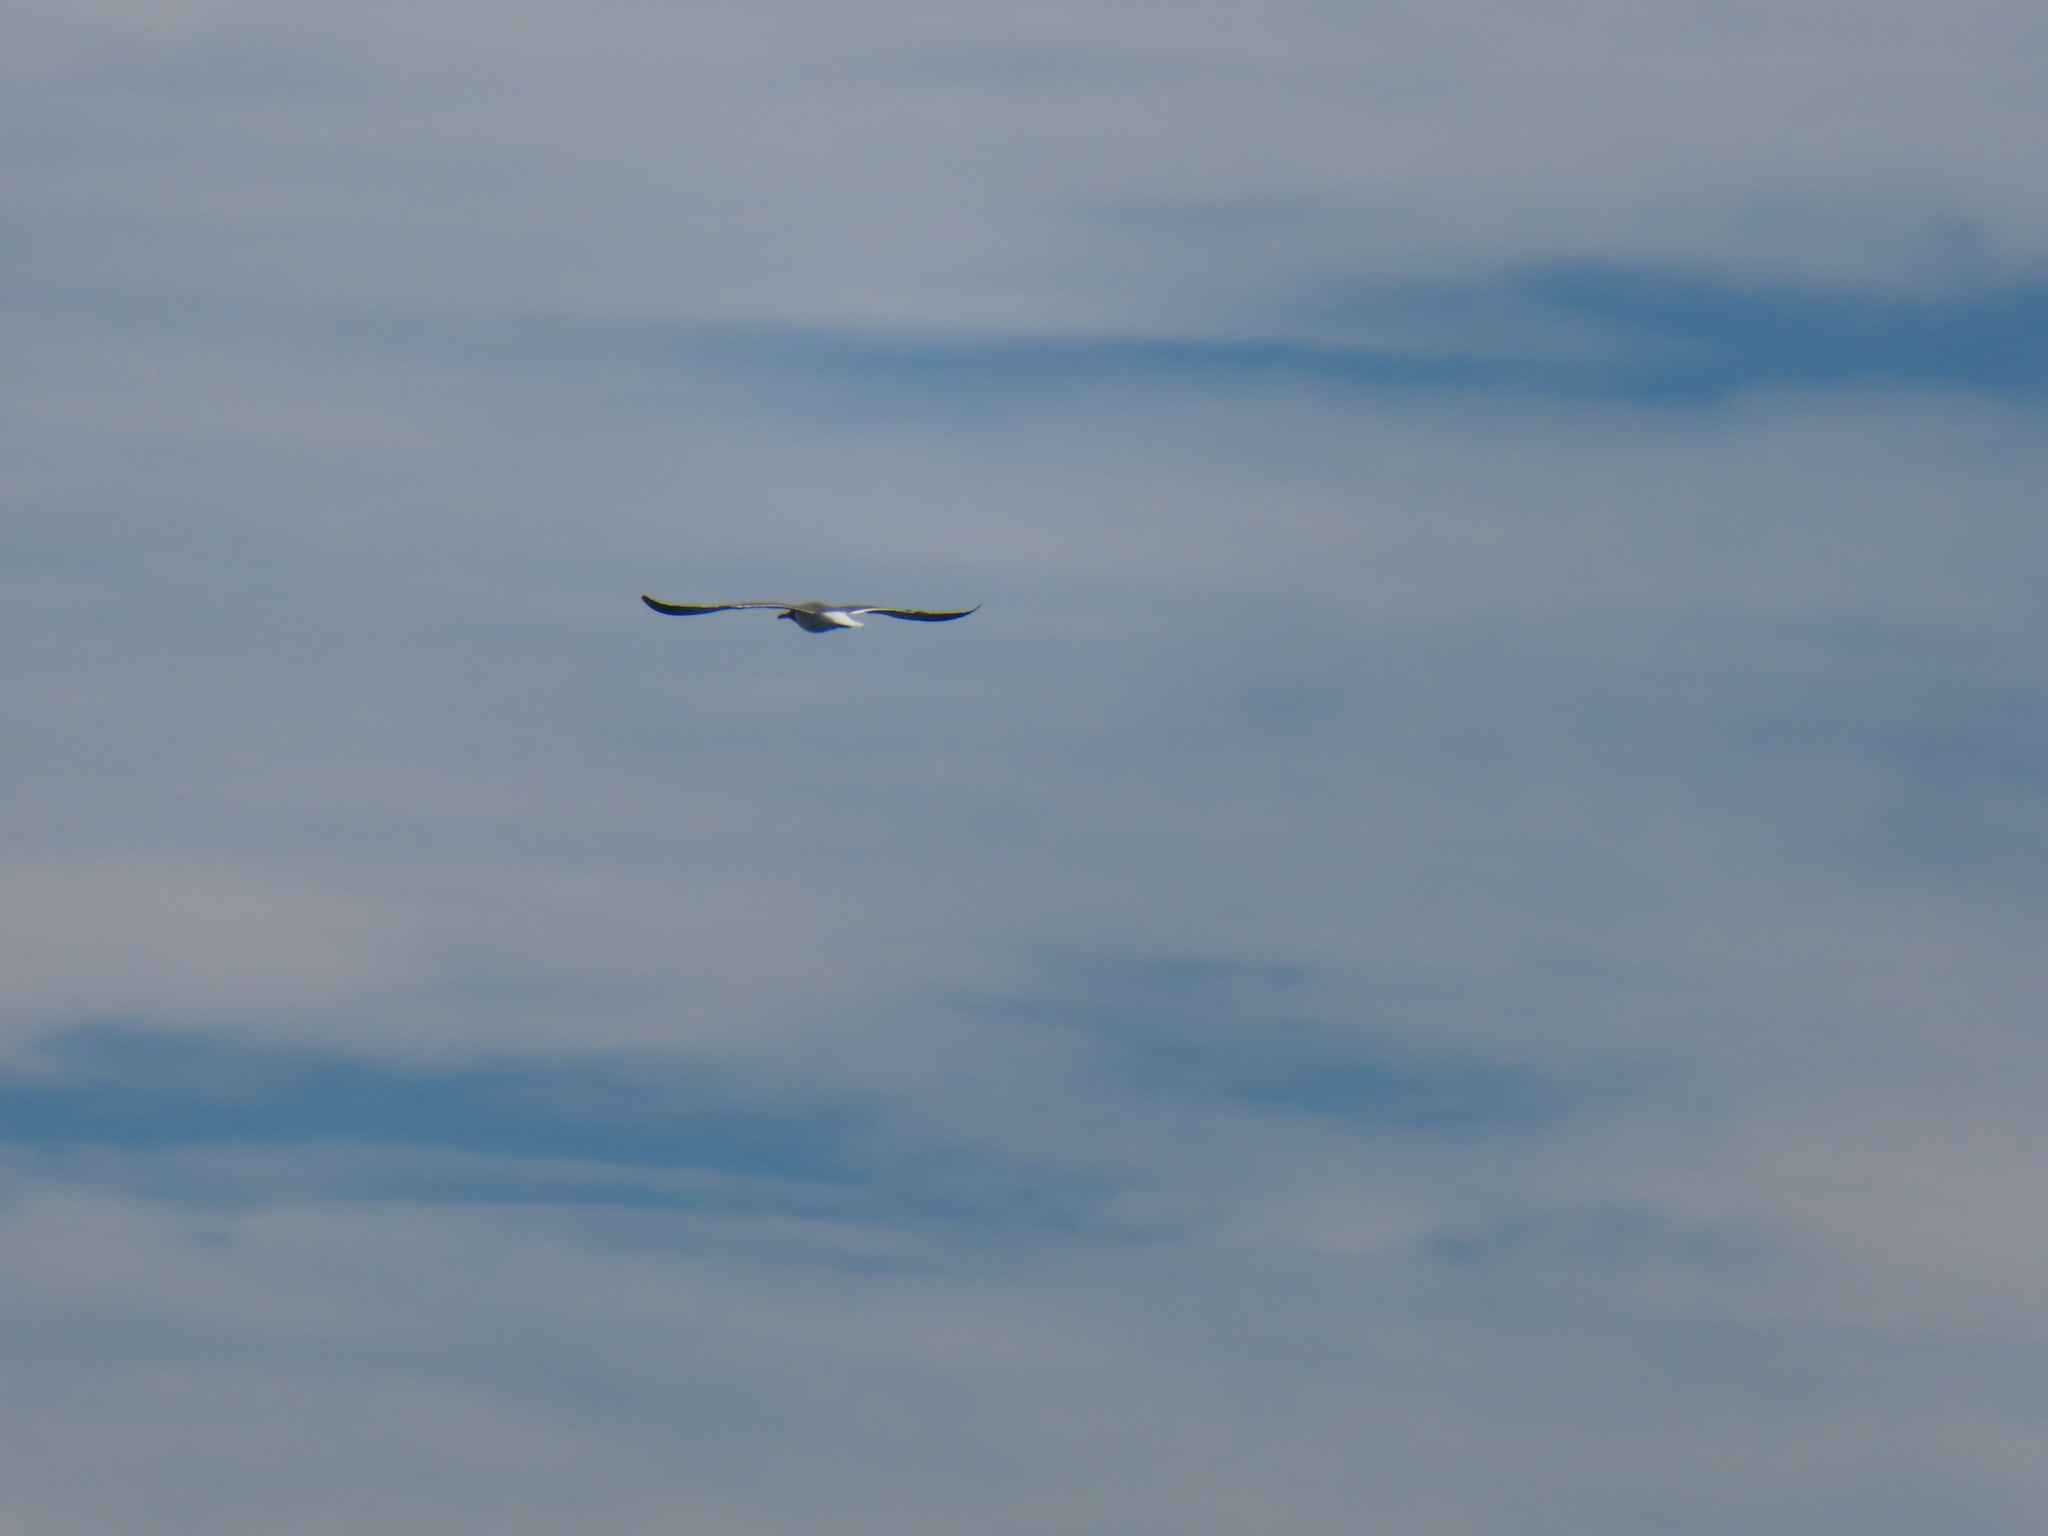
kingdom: Animalia
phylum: Chordata
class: Aves
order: Charadriiformes
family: Laridae
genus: Leucophaeus
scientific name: Leucophaeus atricilla
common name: Laughing gull
